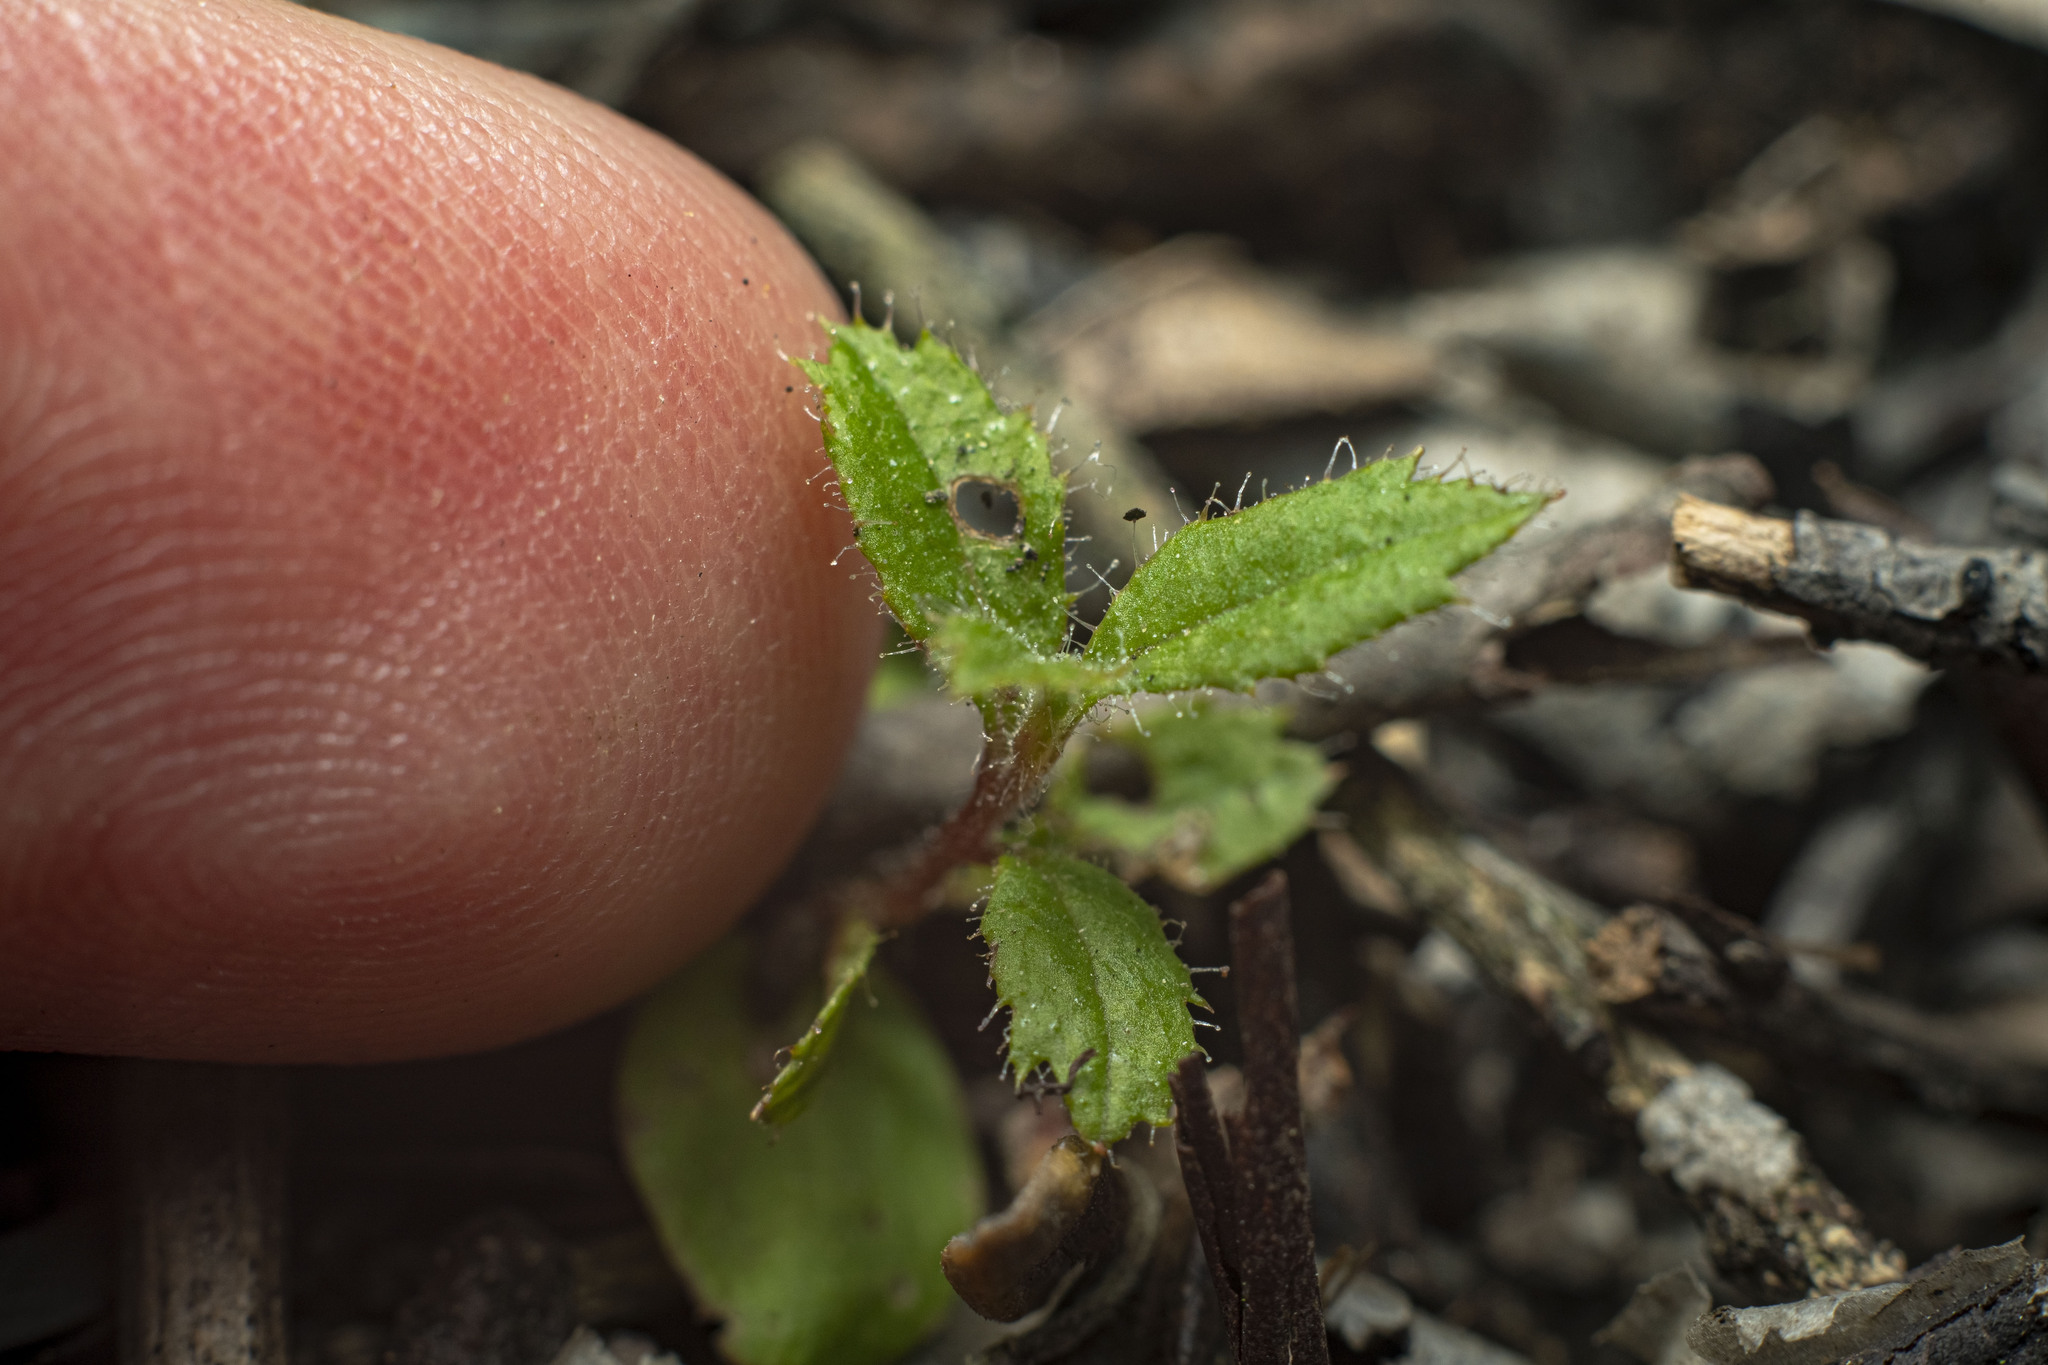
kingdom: Plantae
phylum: Tracheophyta
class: Magnoliopsida
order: Ericales
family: Ericaceae
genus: Arctostaphylos
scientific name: Arctostaphylos bicolor
